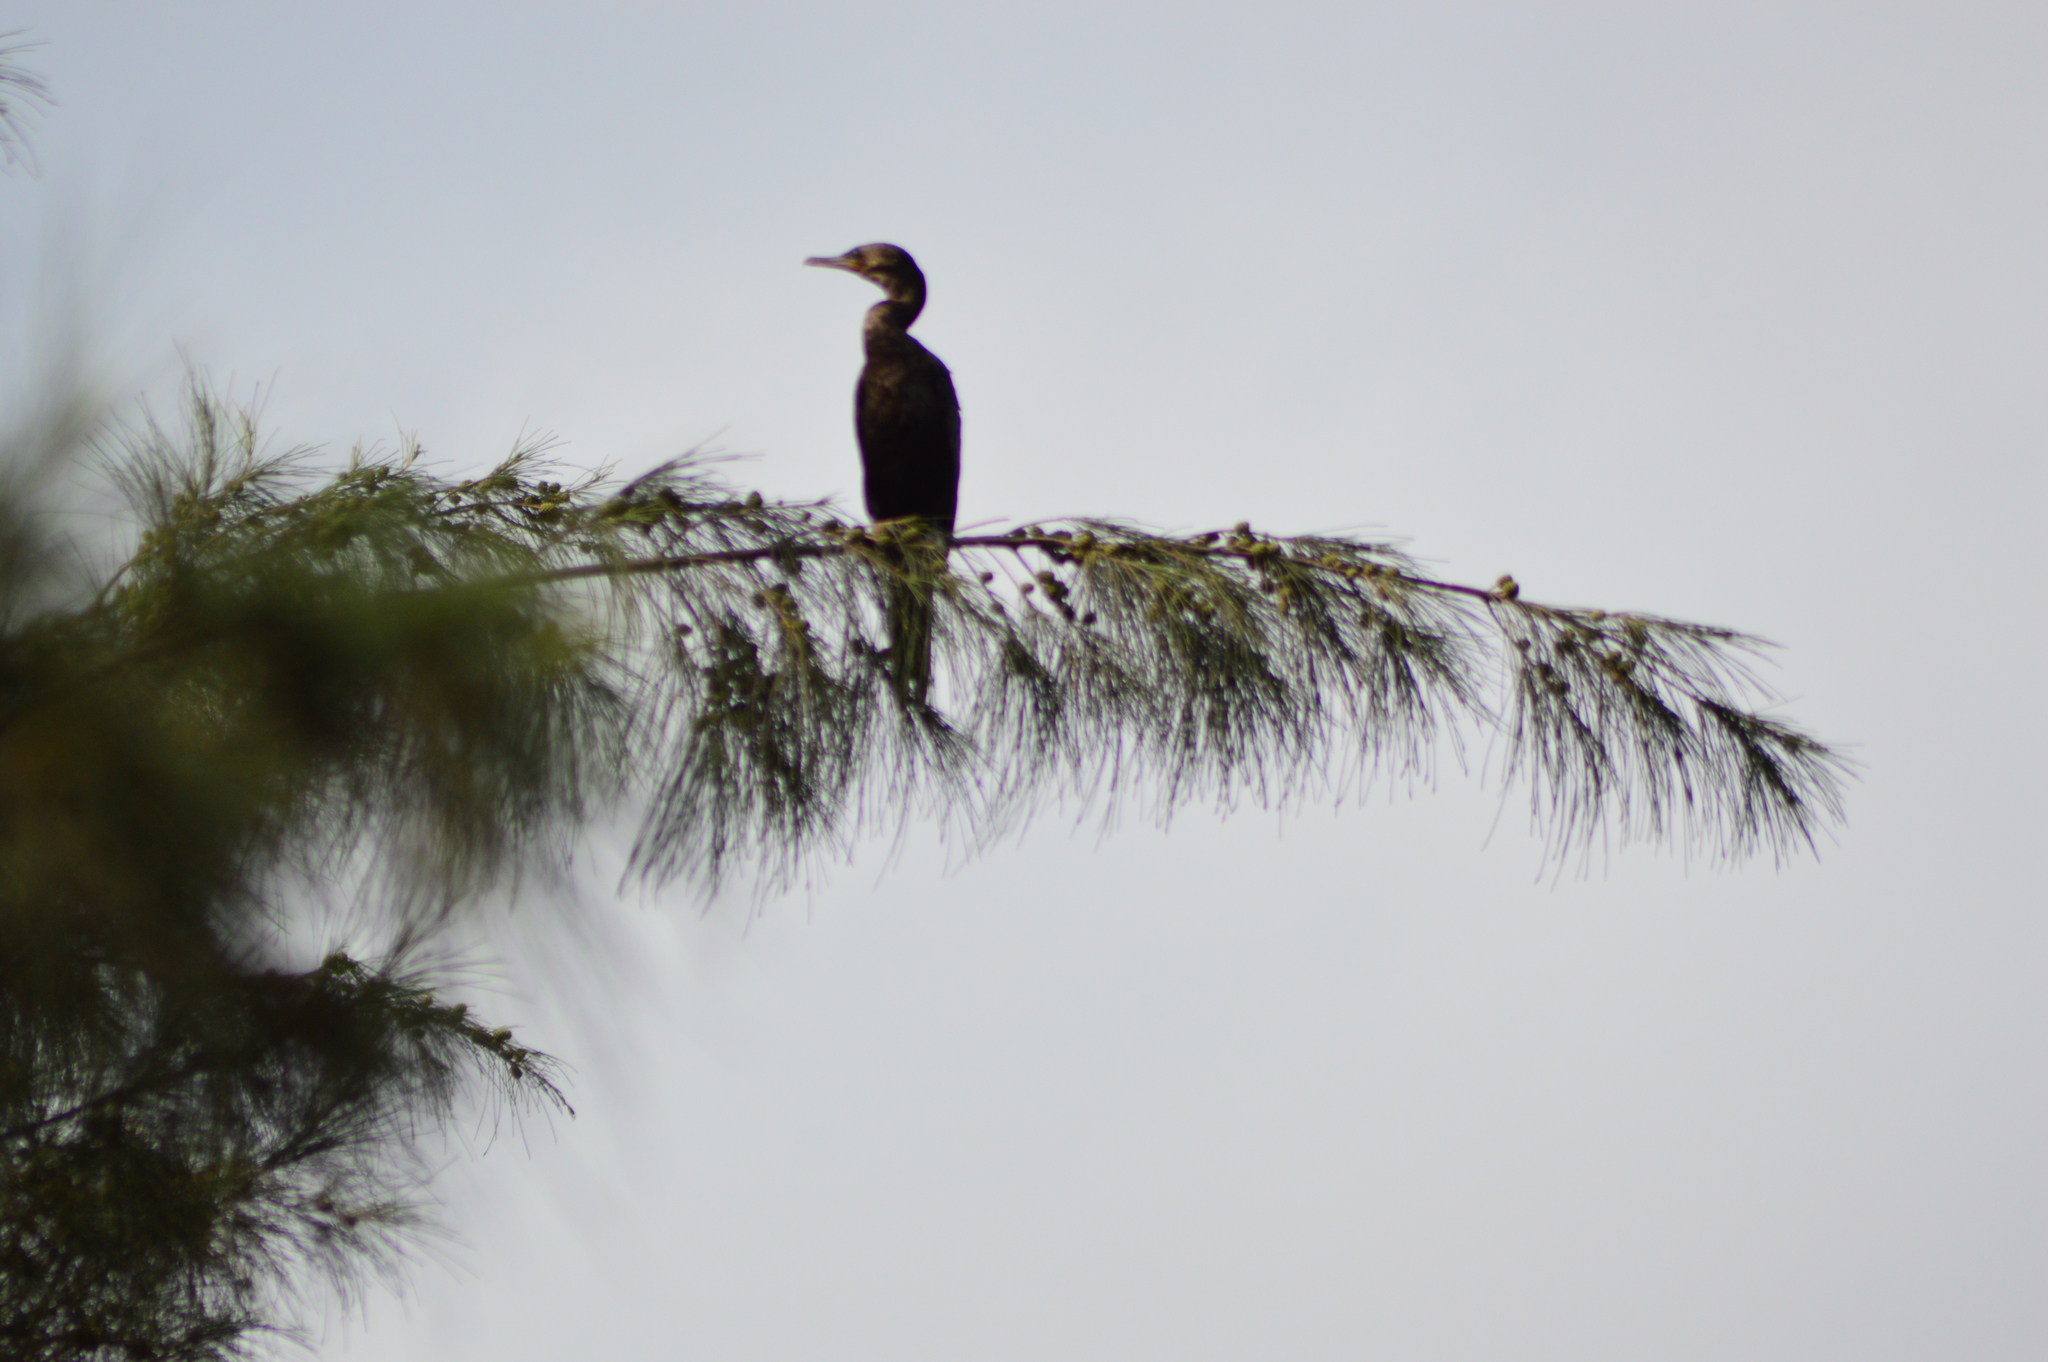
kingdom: Animalia
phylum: Chordata
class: Aves
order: Suliformes
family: Phalacrocoracidae
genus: Phalacrocorax
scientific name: Phalacrocorax brasilianus
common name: Neotropic cormorant
